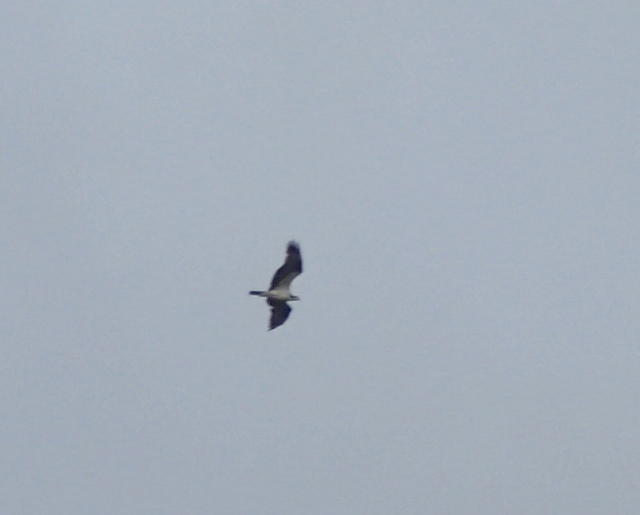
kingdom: Animalia
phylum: Chordata
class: Aves
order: Accipitriformes
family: Pandionidae
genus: Pandion
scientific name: Pandion haliaetus
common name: Osprey
